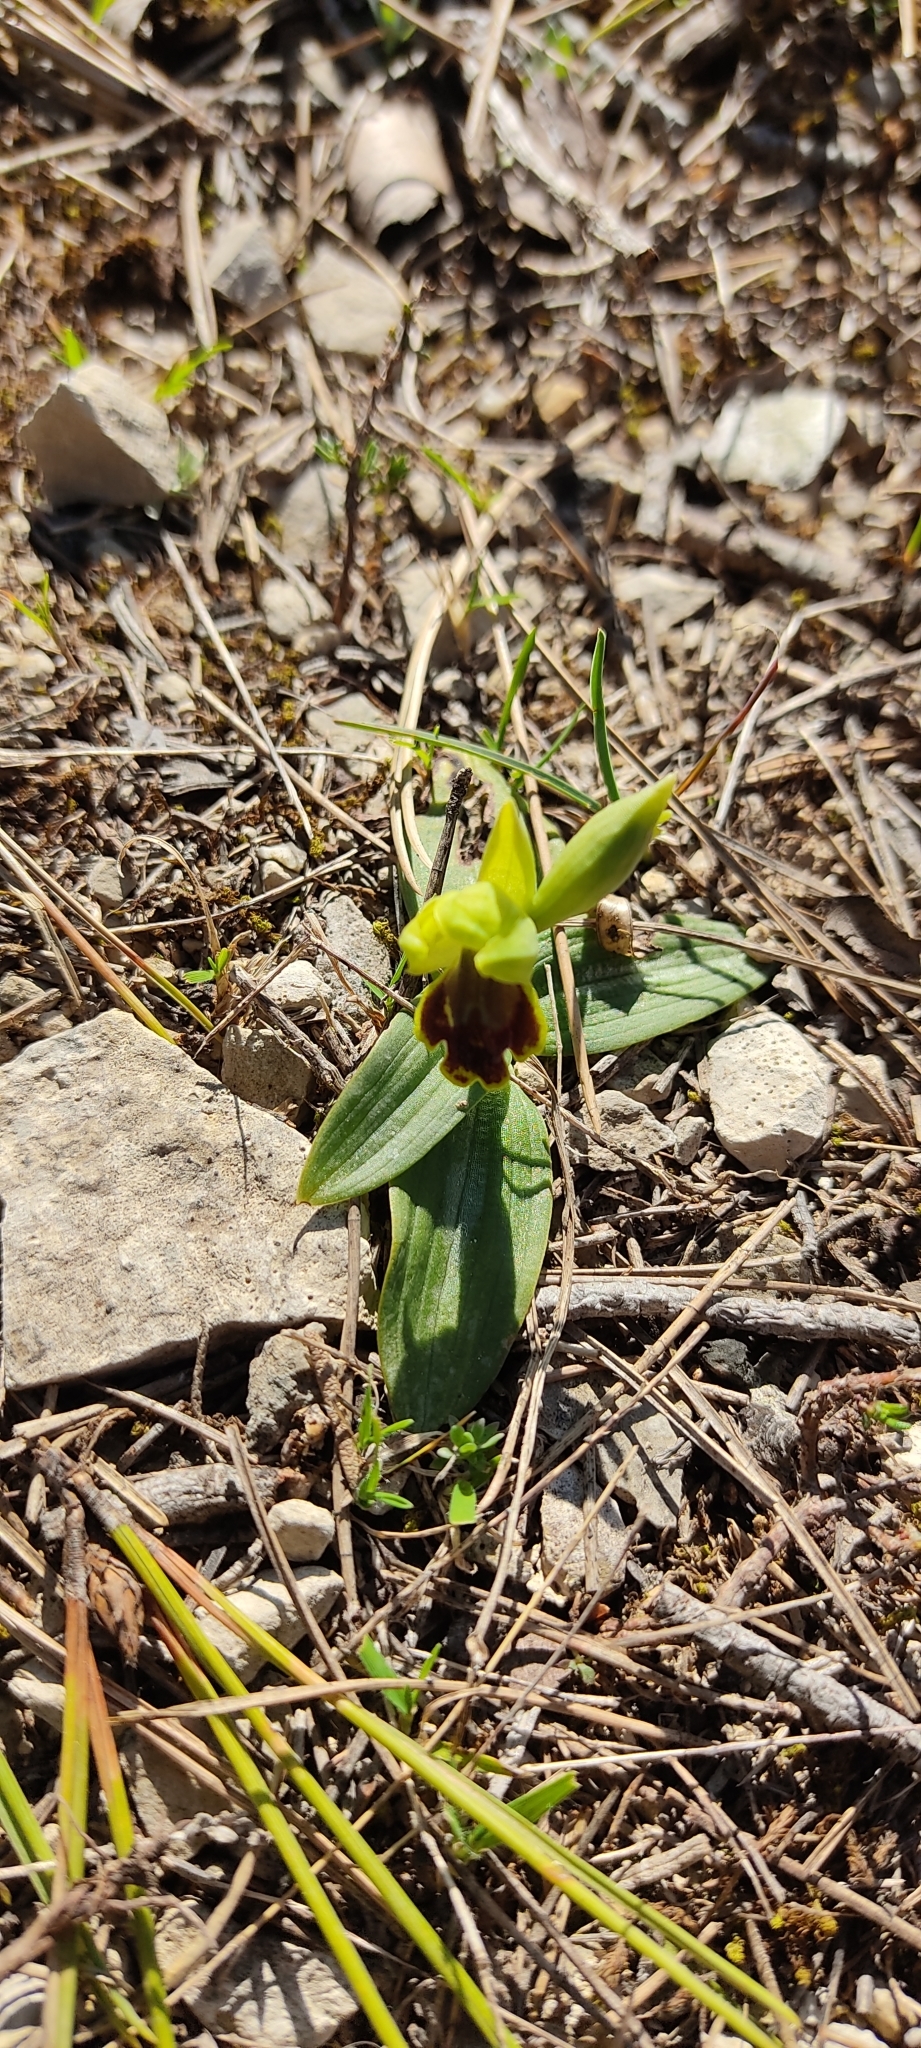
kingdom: Plantae
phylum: Tracheophyta
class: Liliopsida
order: Asparagales
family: Orchidaceae
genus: Ophrys
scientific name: Ophrys fusca
